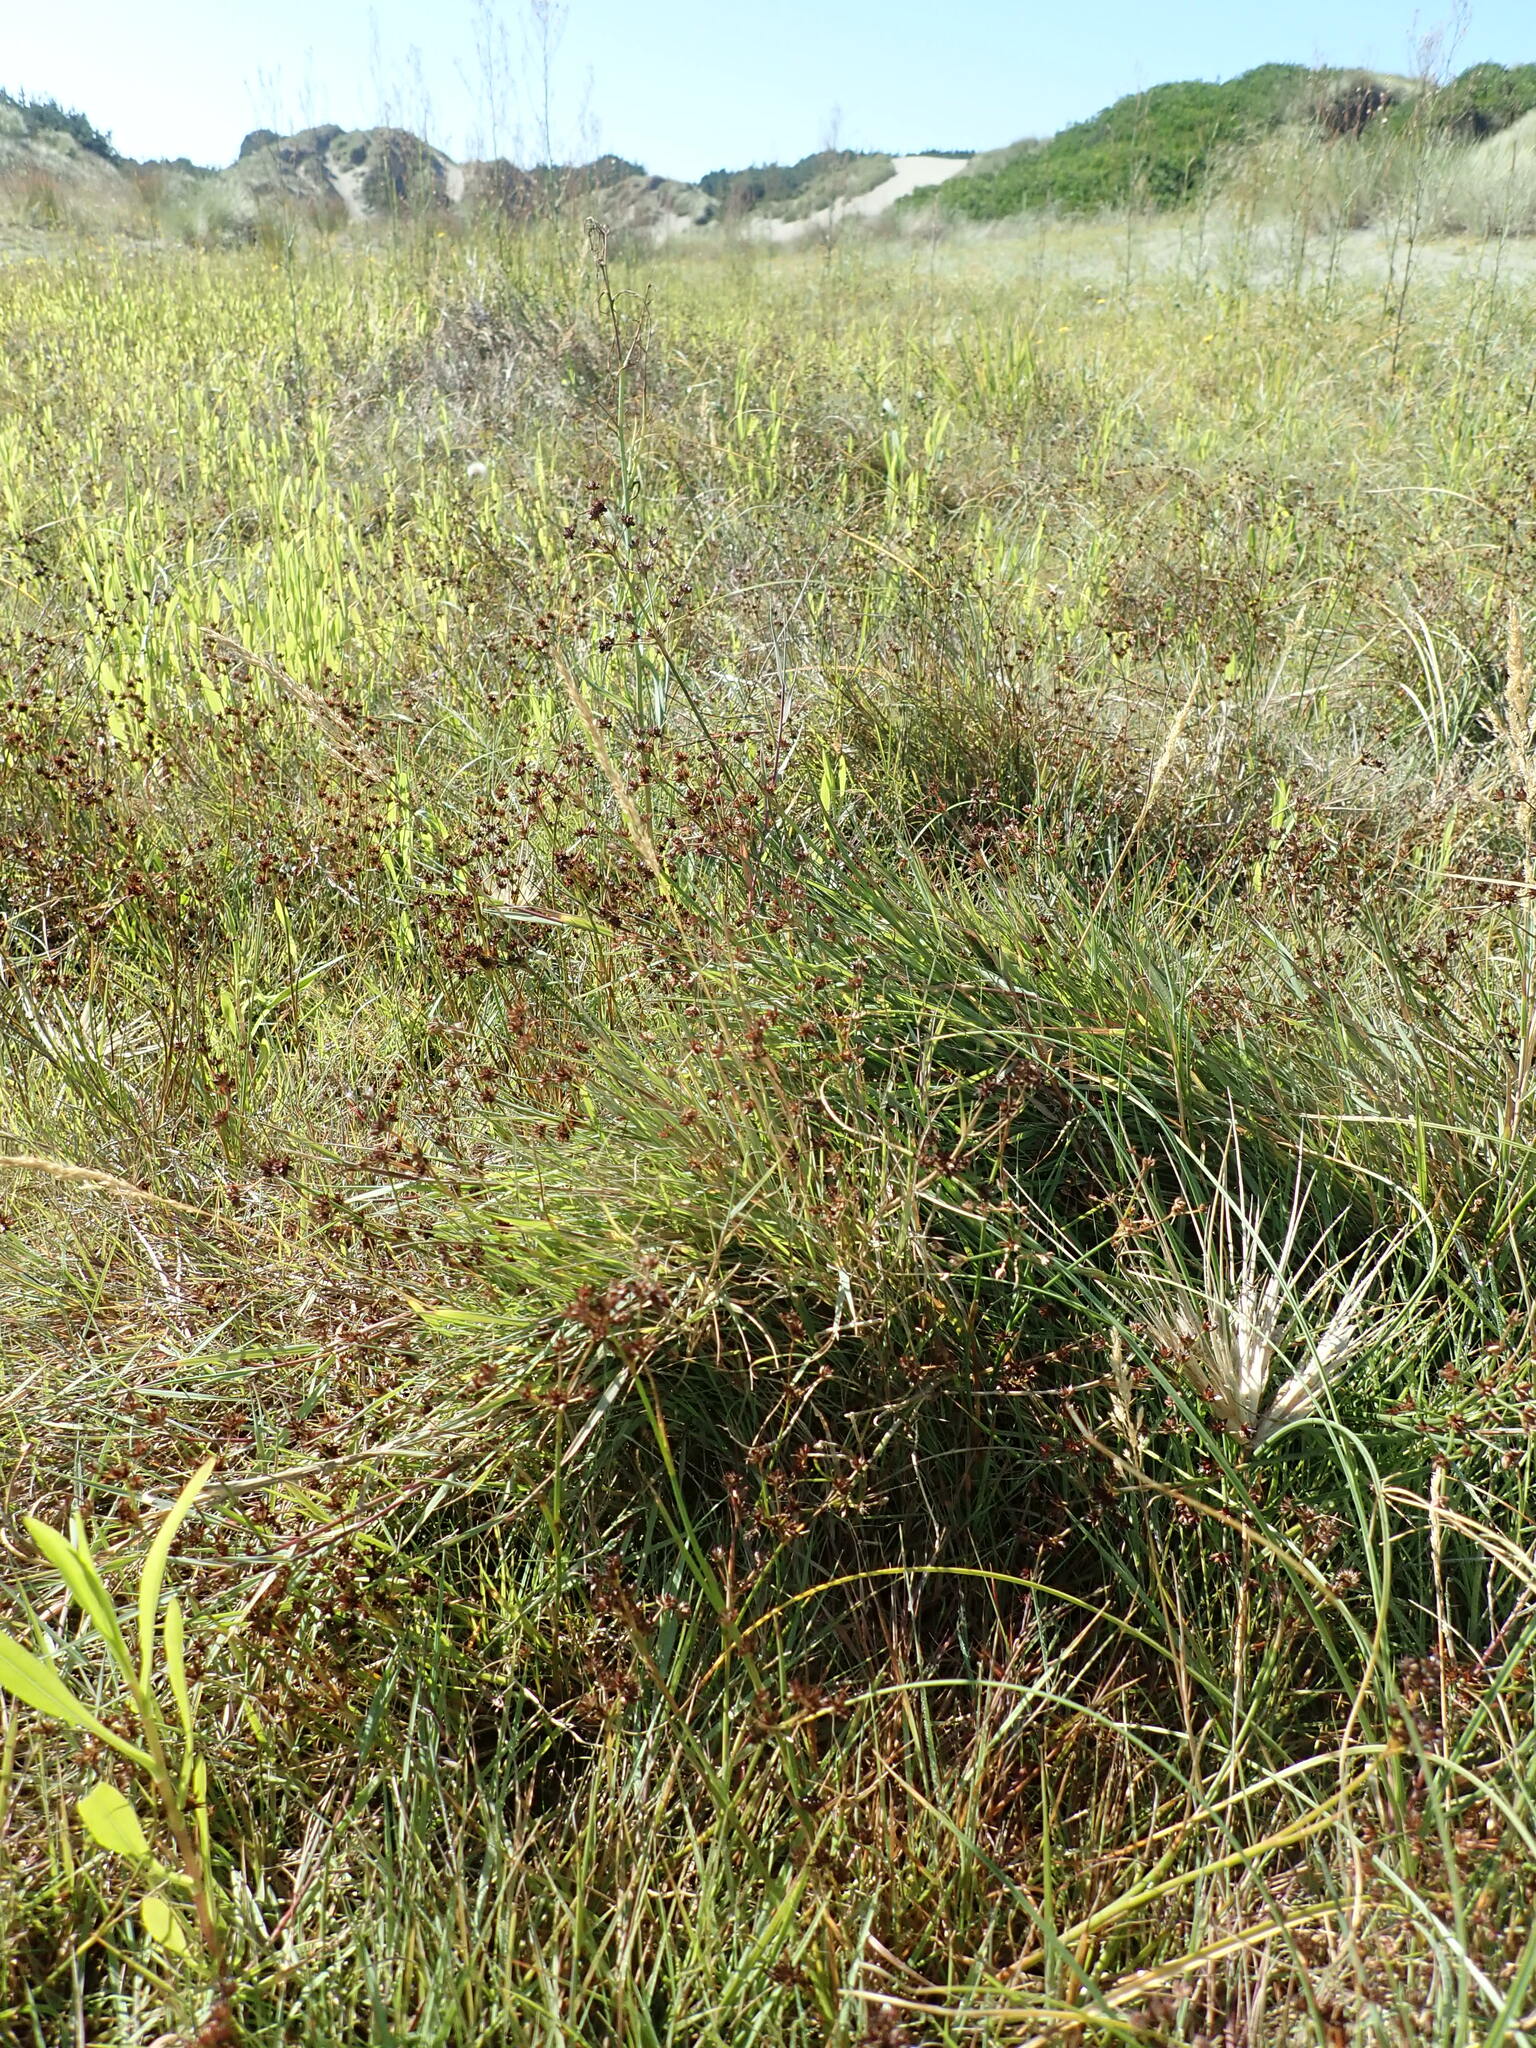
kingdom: Plantae
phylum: Tracheophyta
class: Liliopsida
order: Poales
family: Juncaceae
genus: Juncus
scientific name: Juncus articulatus
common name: Jointed rush
